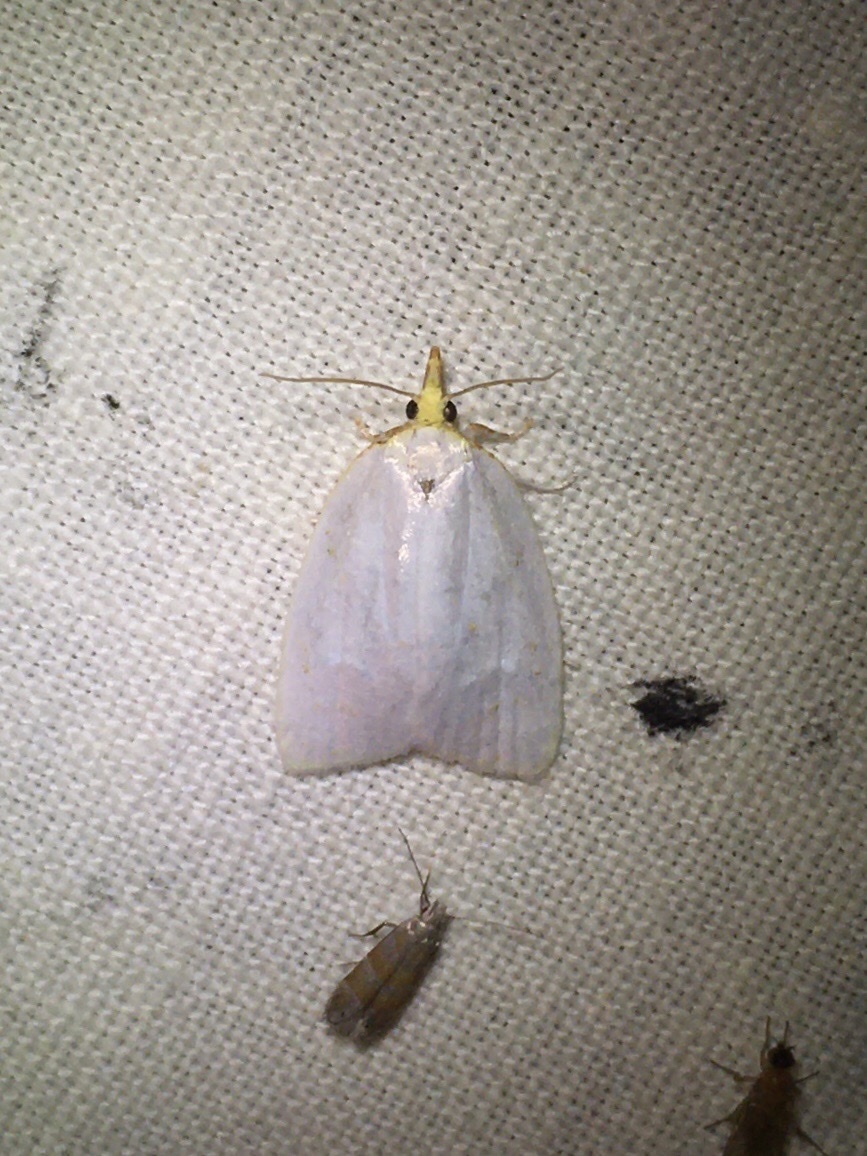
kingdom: Animalia
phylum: Arthropoda
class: Insecta
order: Lepidoptera
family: Tortricidae
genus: Cenopis
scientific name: Cenopis pettitana
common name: Maple-basswood leafroller moth
